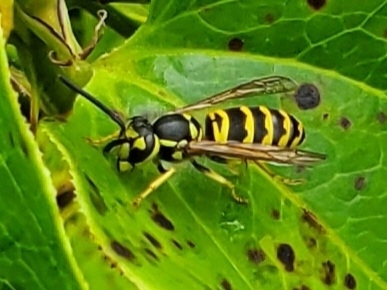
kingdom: Animalia
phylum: Arthropoda
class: Insecta
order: Hymenoptera
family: Vespidae
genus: Vespula
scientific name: Vespula maculifrons
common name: Eastern yellowjacket
